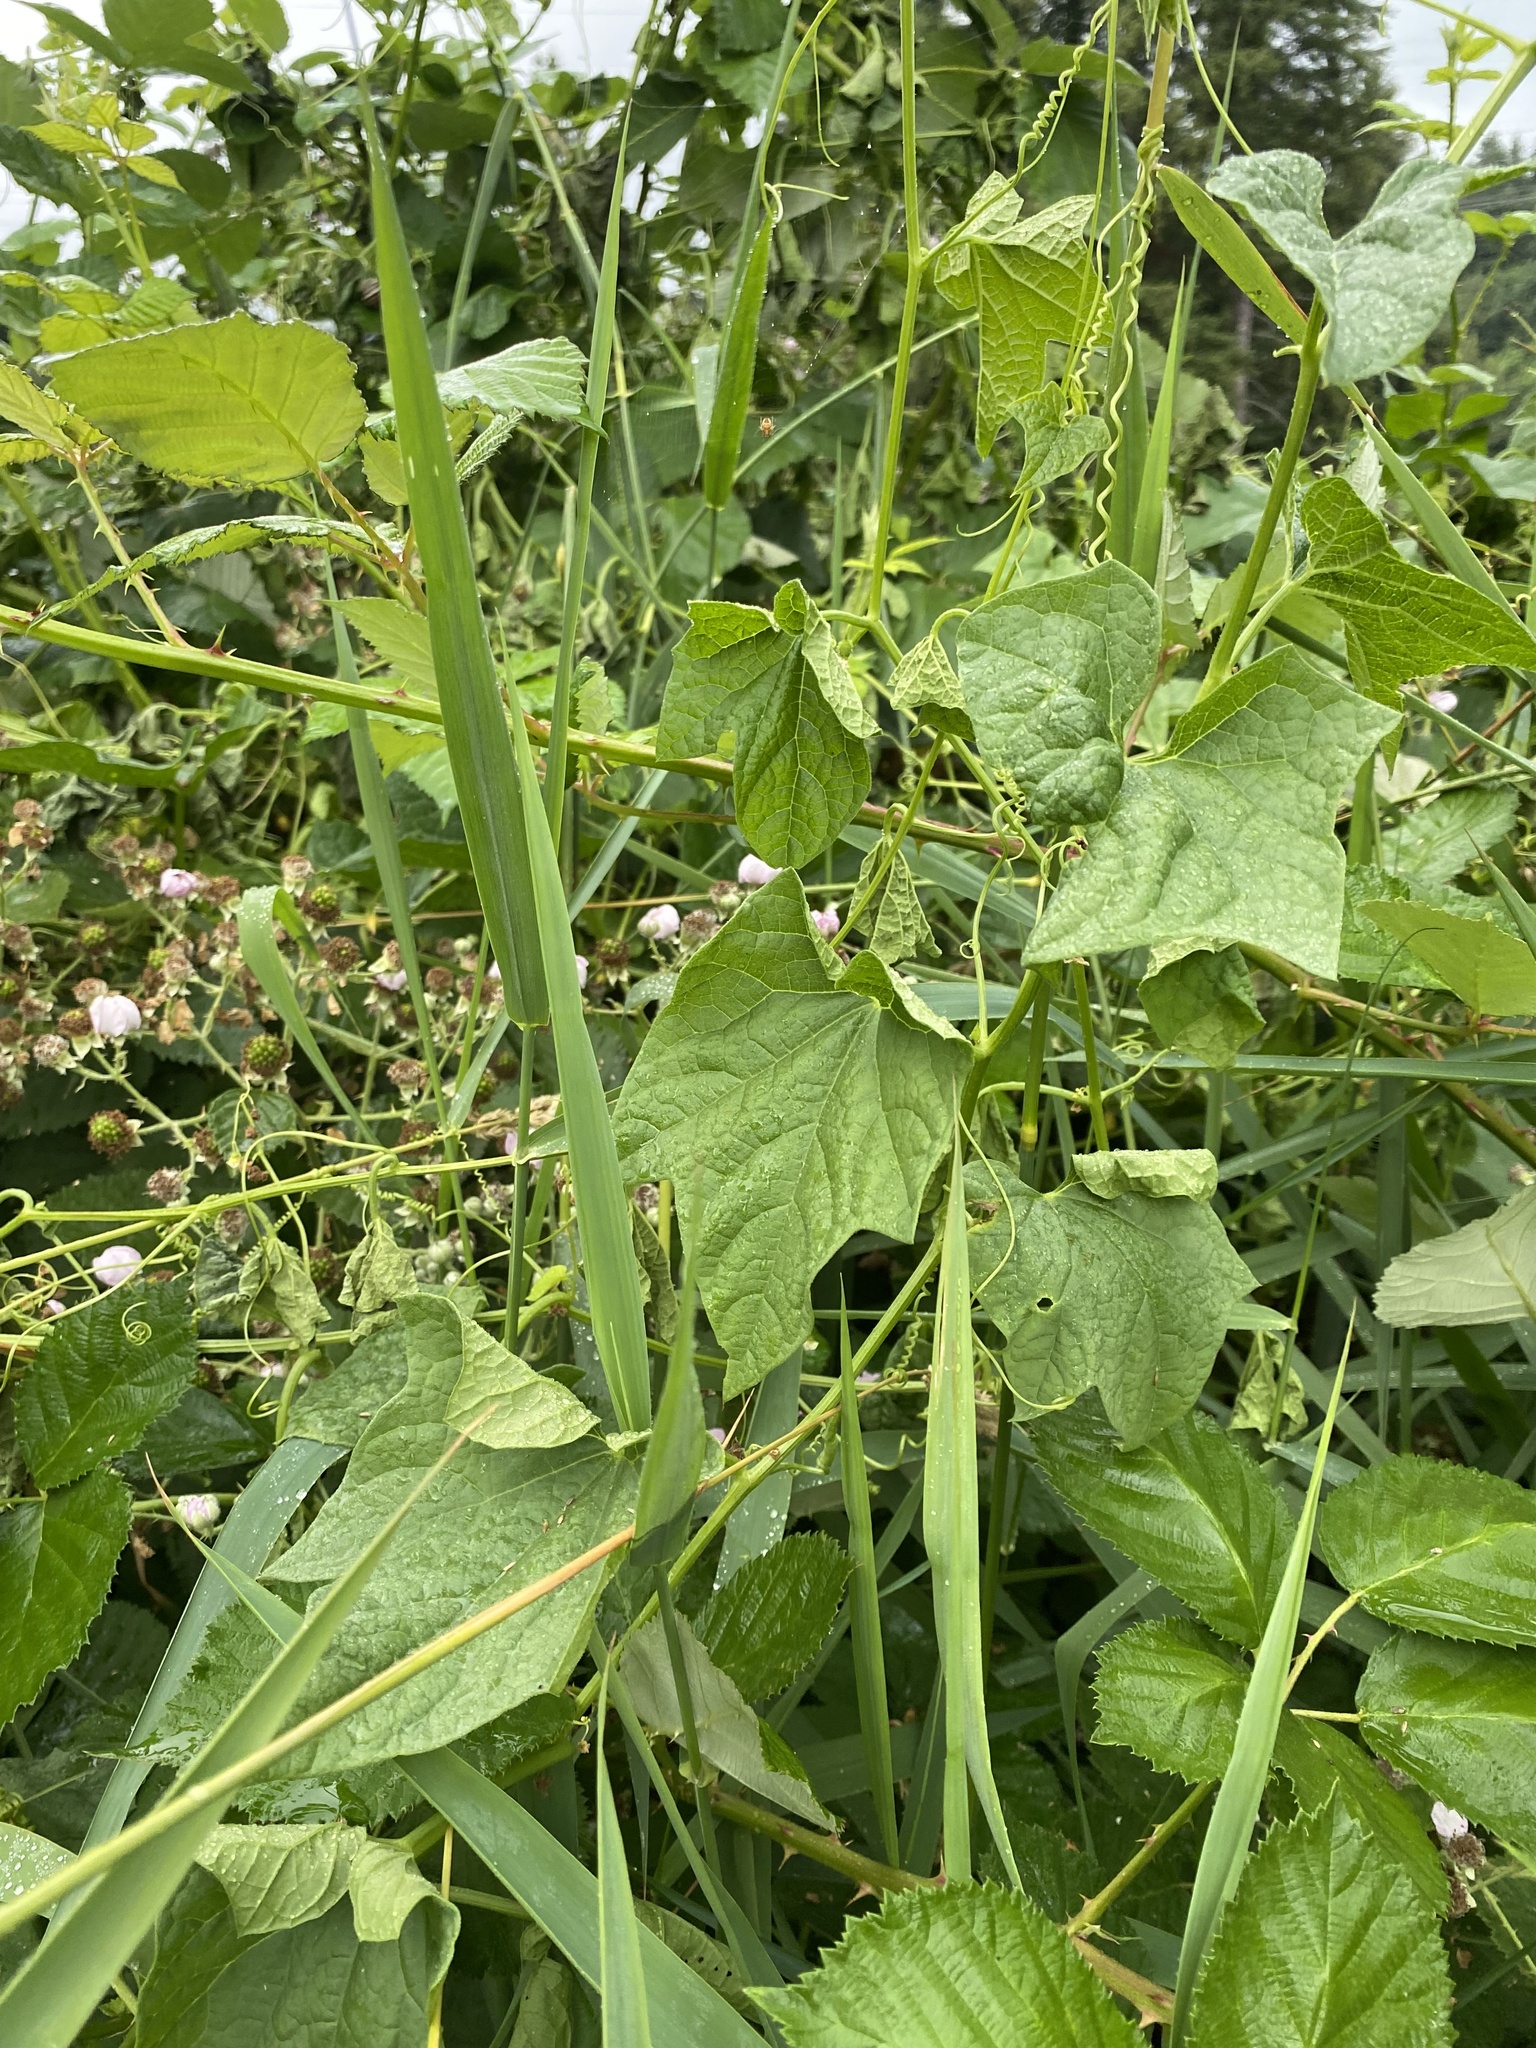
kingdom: Plantae
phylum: Tracheophyta
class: Magnoliopsida
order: Cucurbitales
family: Cucurbitaceae
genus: Marah
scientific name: Marah oregana
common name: Coastal manroot
